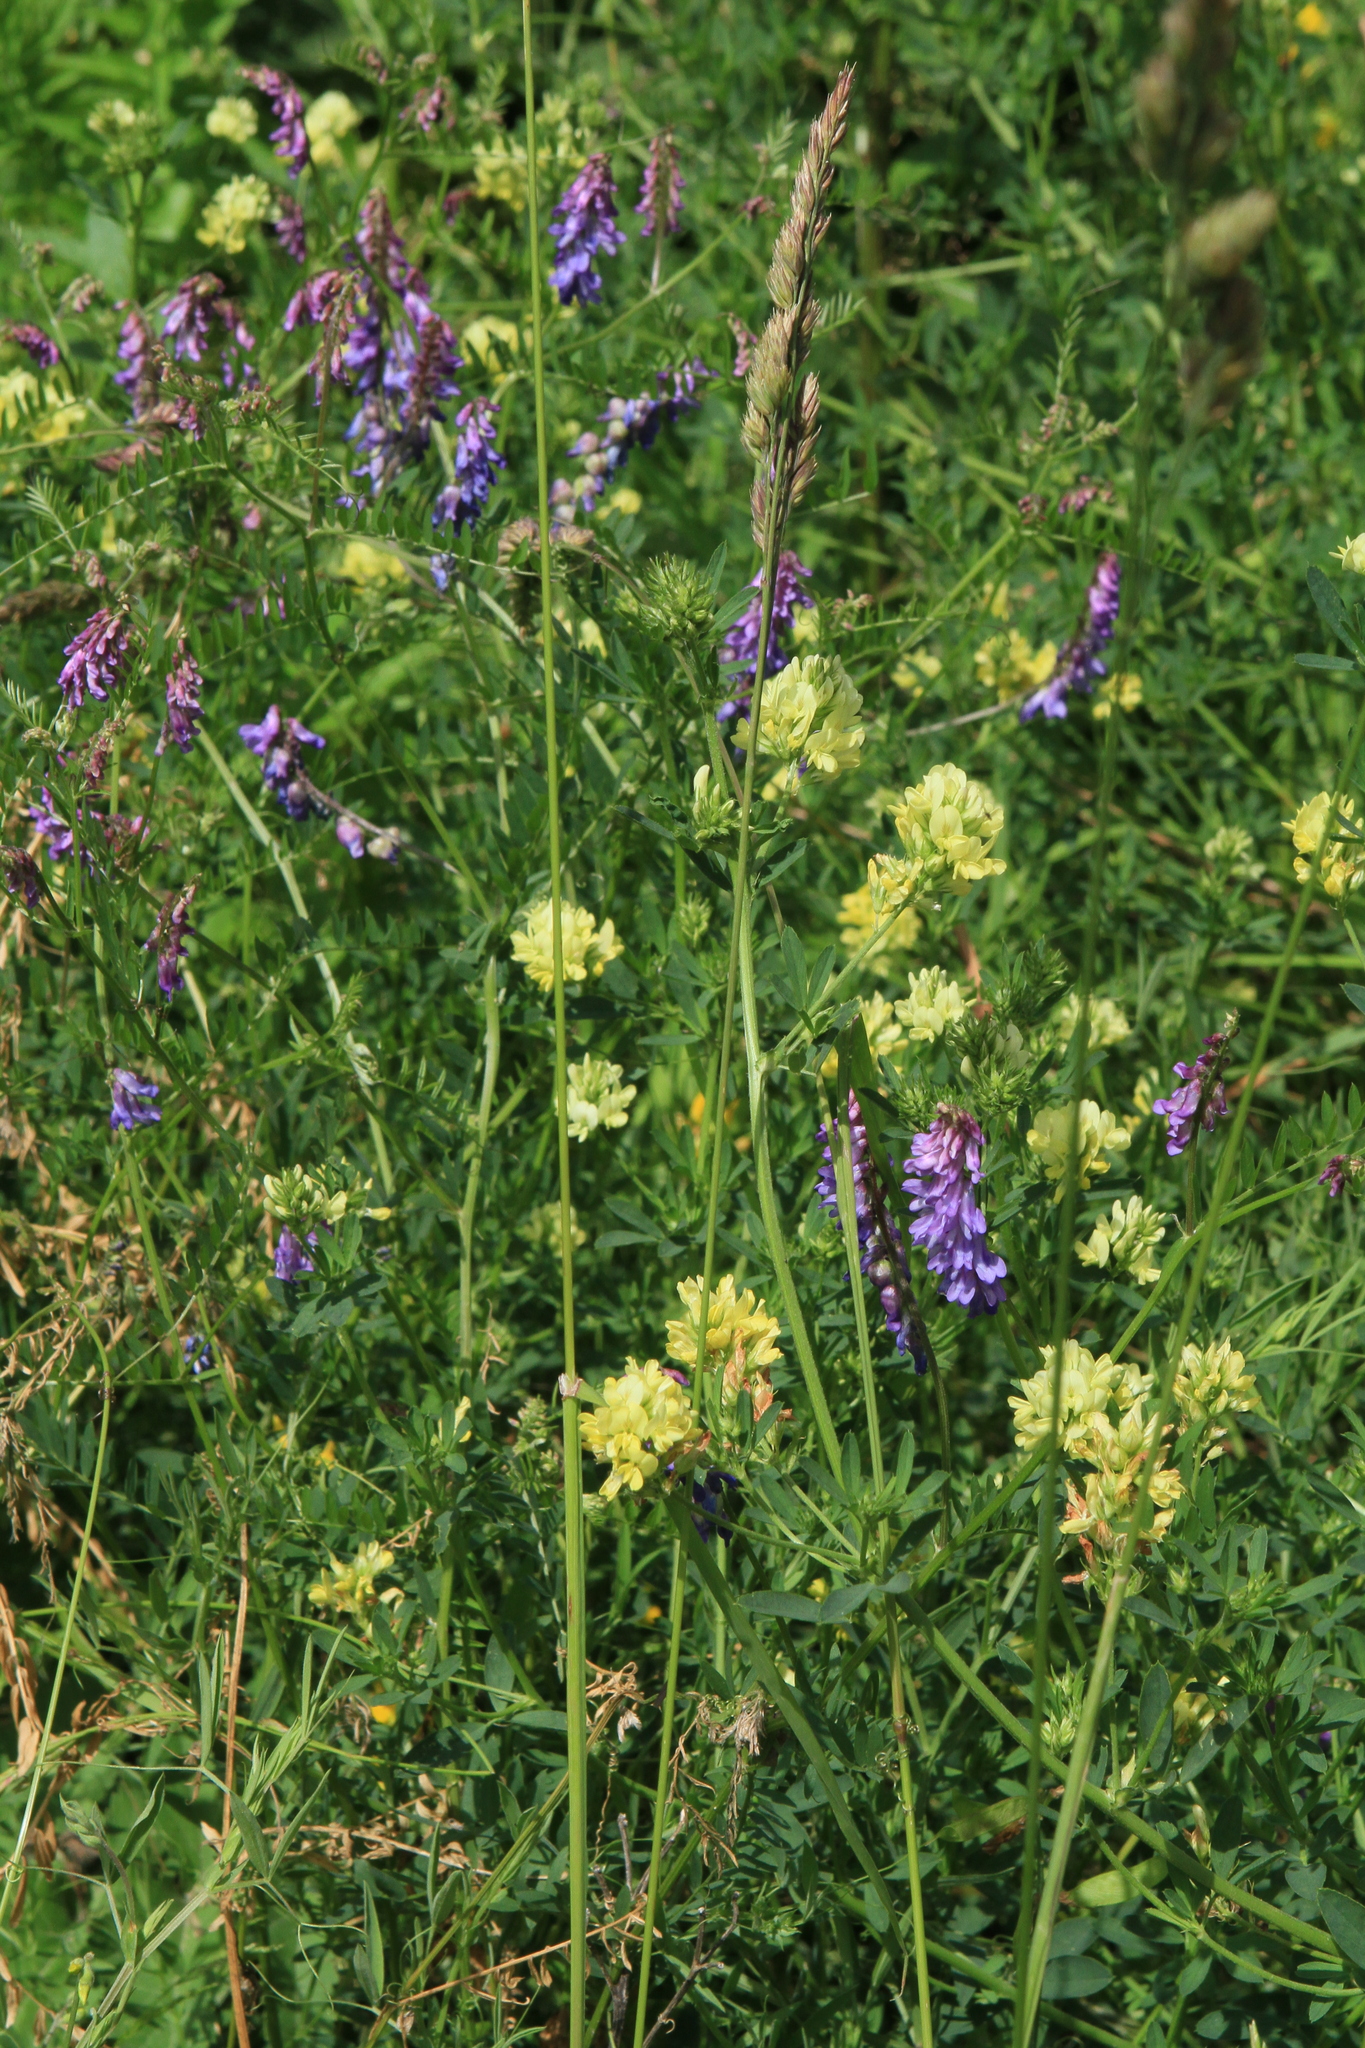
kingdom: Plantae
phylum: Tracheophyta
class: Magnoliopsida
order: Fabales
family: Fabaceae
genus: Medicago
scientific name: Medicago varia
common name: Sand lucerne
